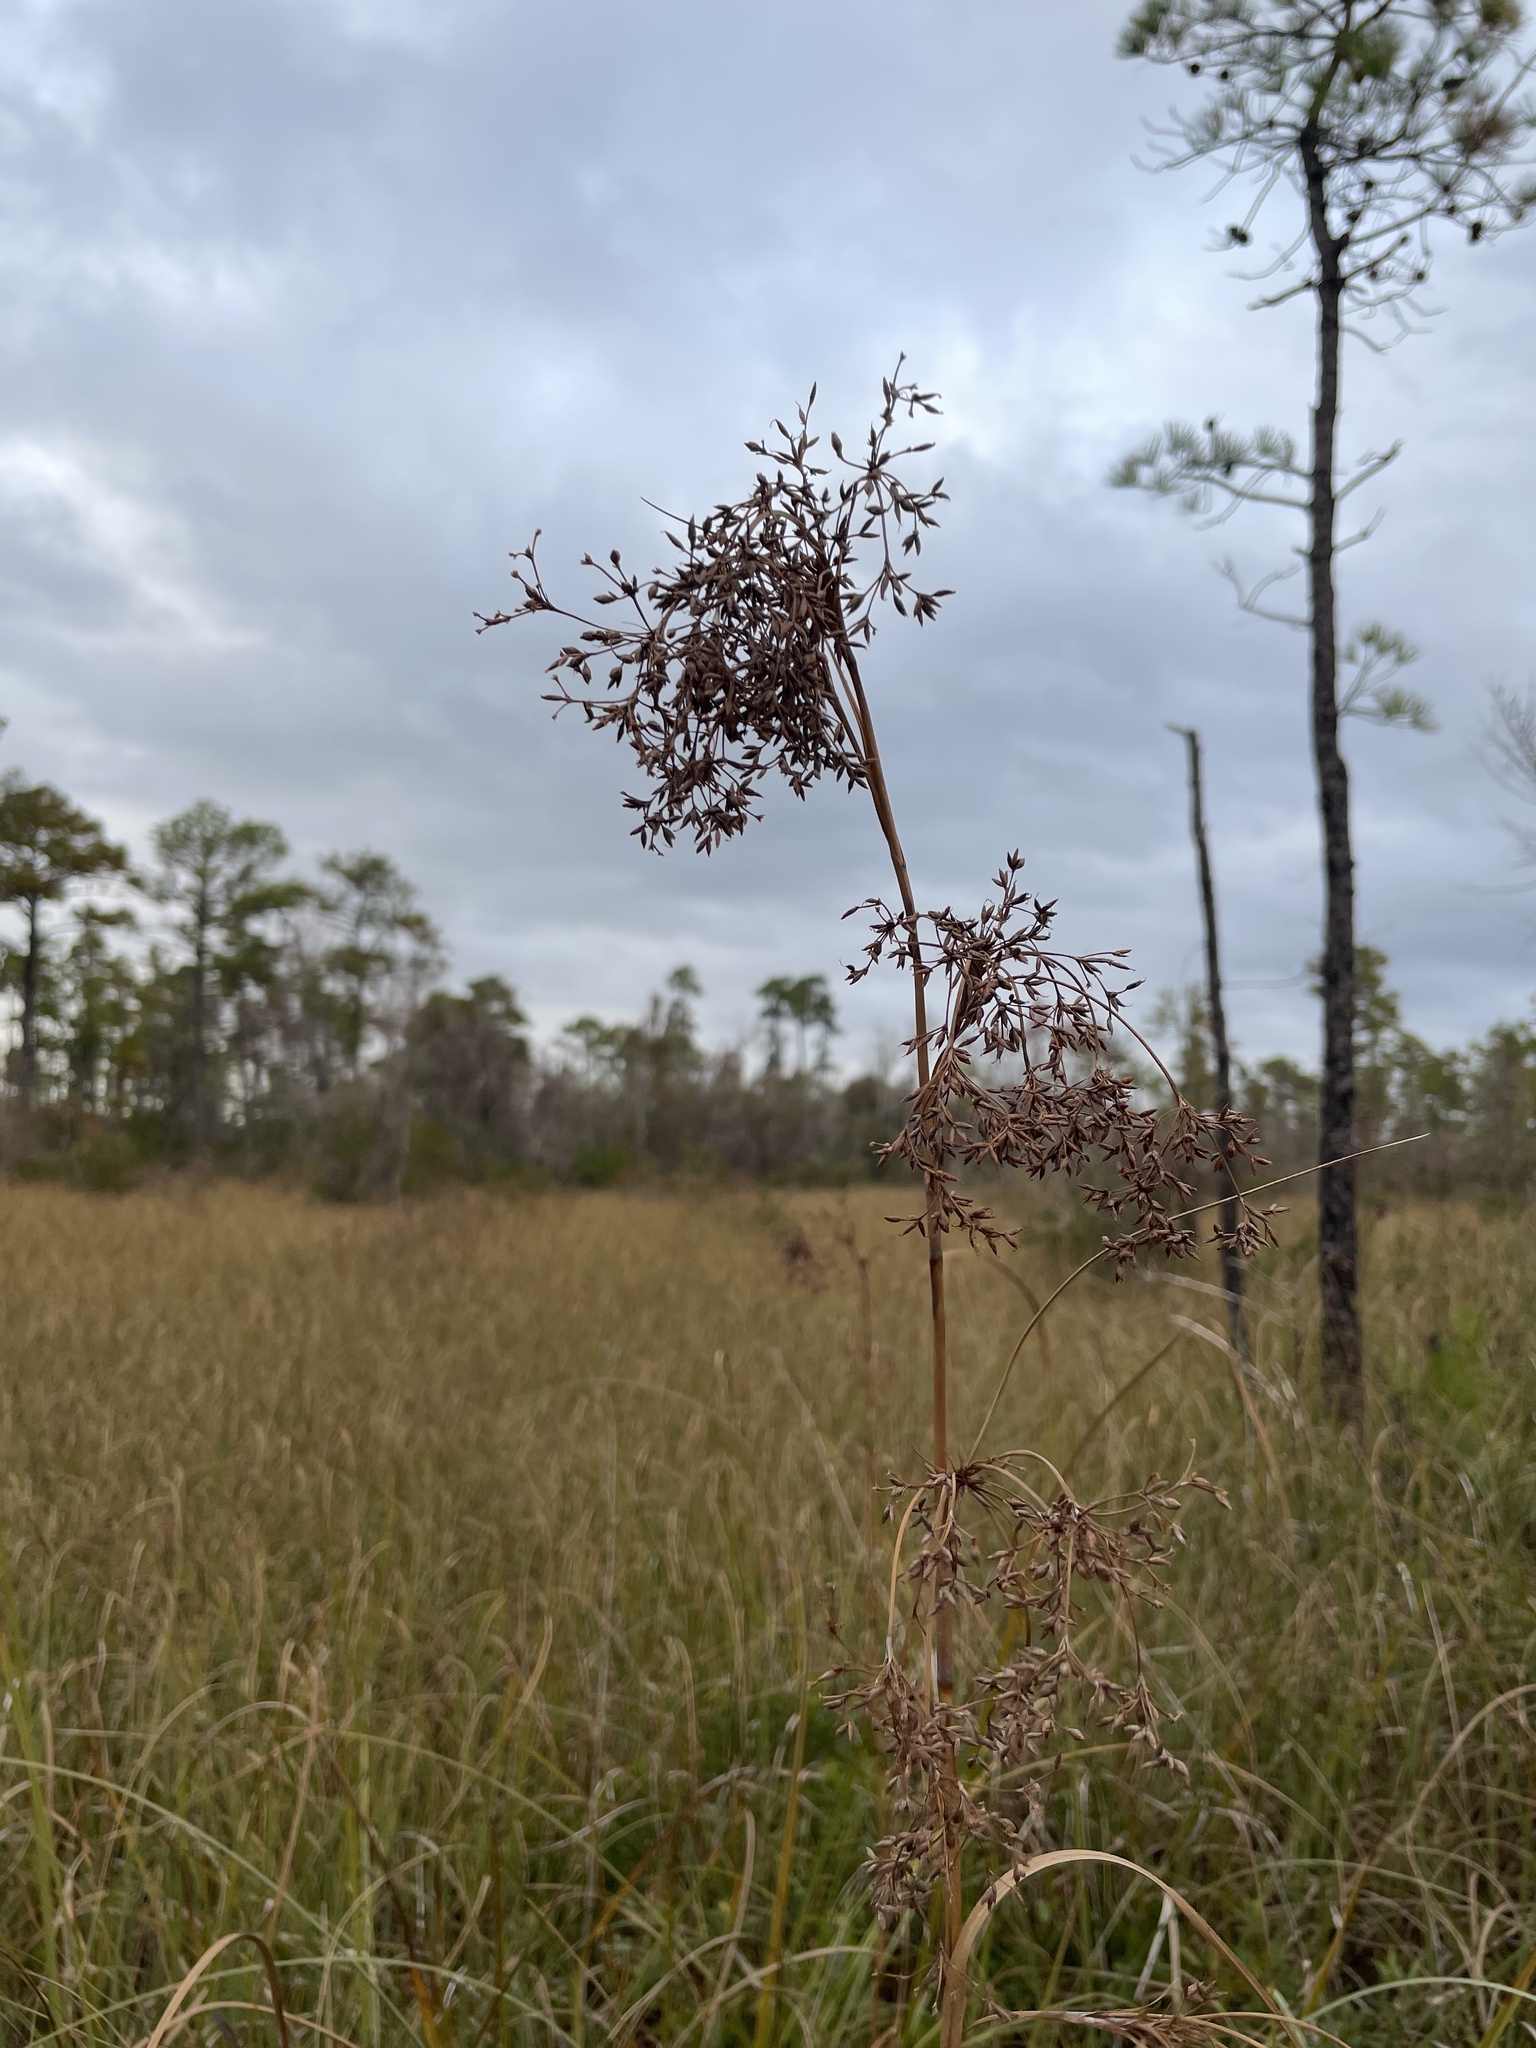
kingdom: Plantae
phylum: Tracheophyta
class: Liliopsida
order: Poales
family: Cyperaceae
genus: Cladium
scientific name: Cladium mariscus
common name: Great fen-sedge
